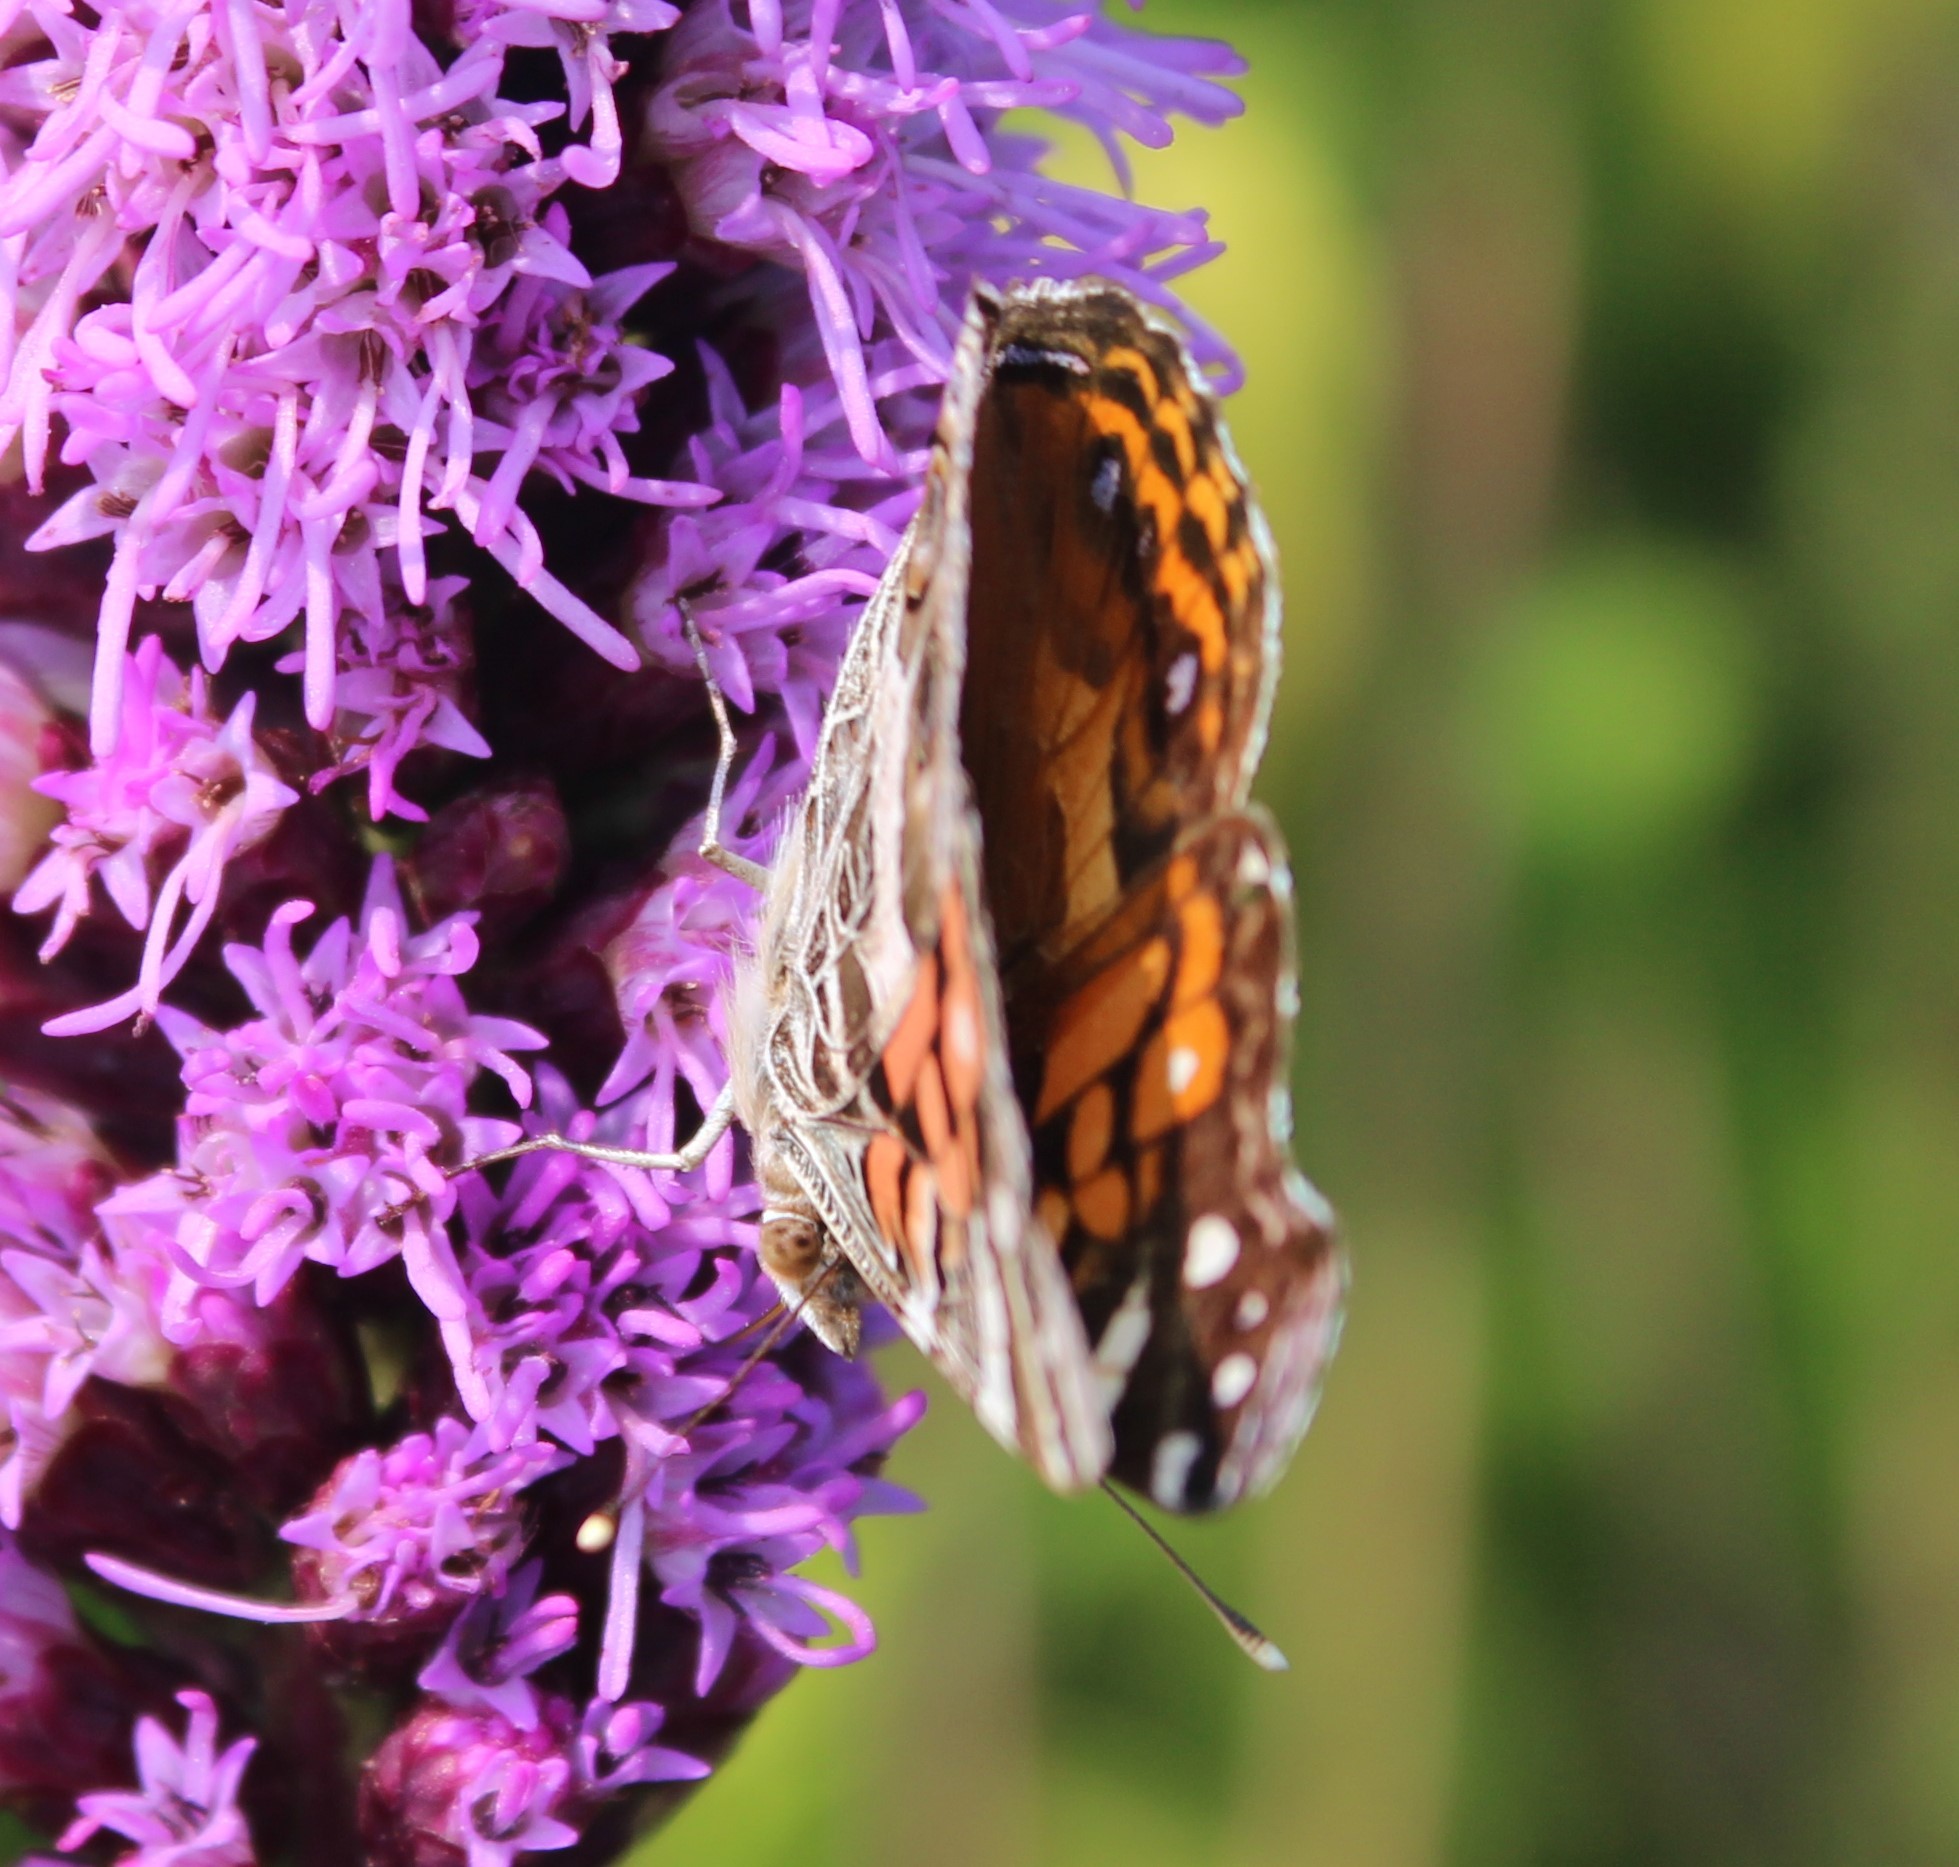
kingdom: Animalia
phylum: Arthropoda
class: Insecta
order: Lepidoptera
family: Nymphalidae
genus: Vanessa
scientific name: Vanessa virginiensis
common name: American lady
